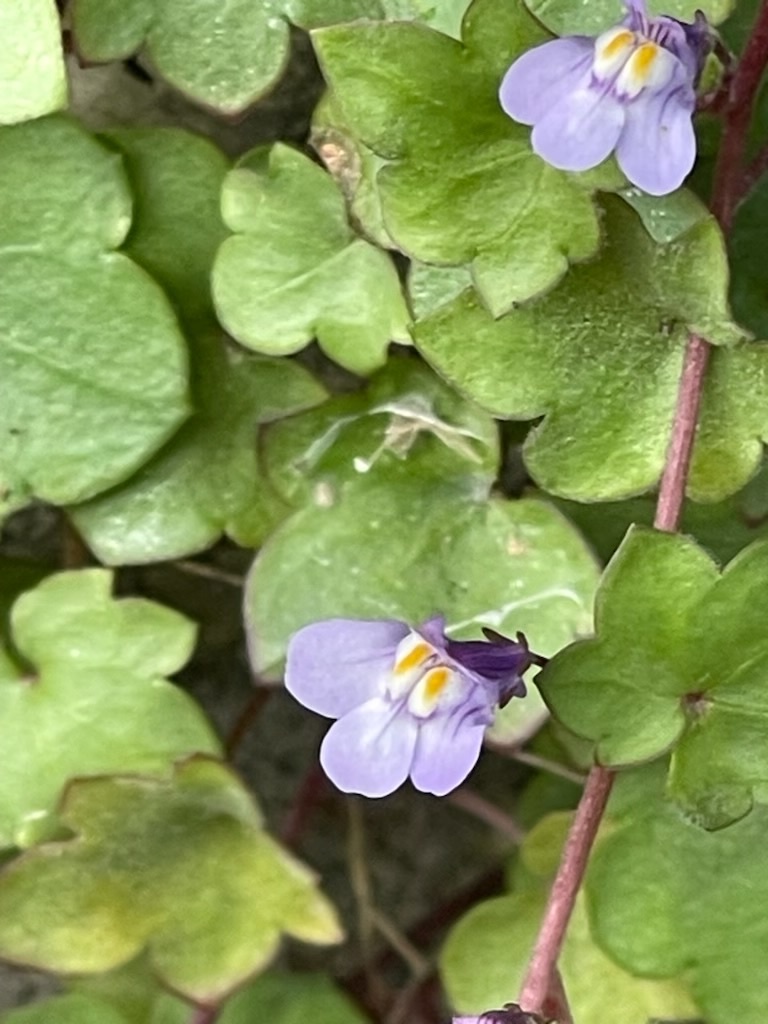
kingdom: Plantae
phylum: Tracheophyta
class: Magnoliopsida
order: Lamiales
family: Plantaginaceae
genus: Cymbalaria
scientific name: Cymbalaria muralis
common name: Ivy-leaved toadflax
